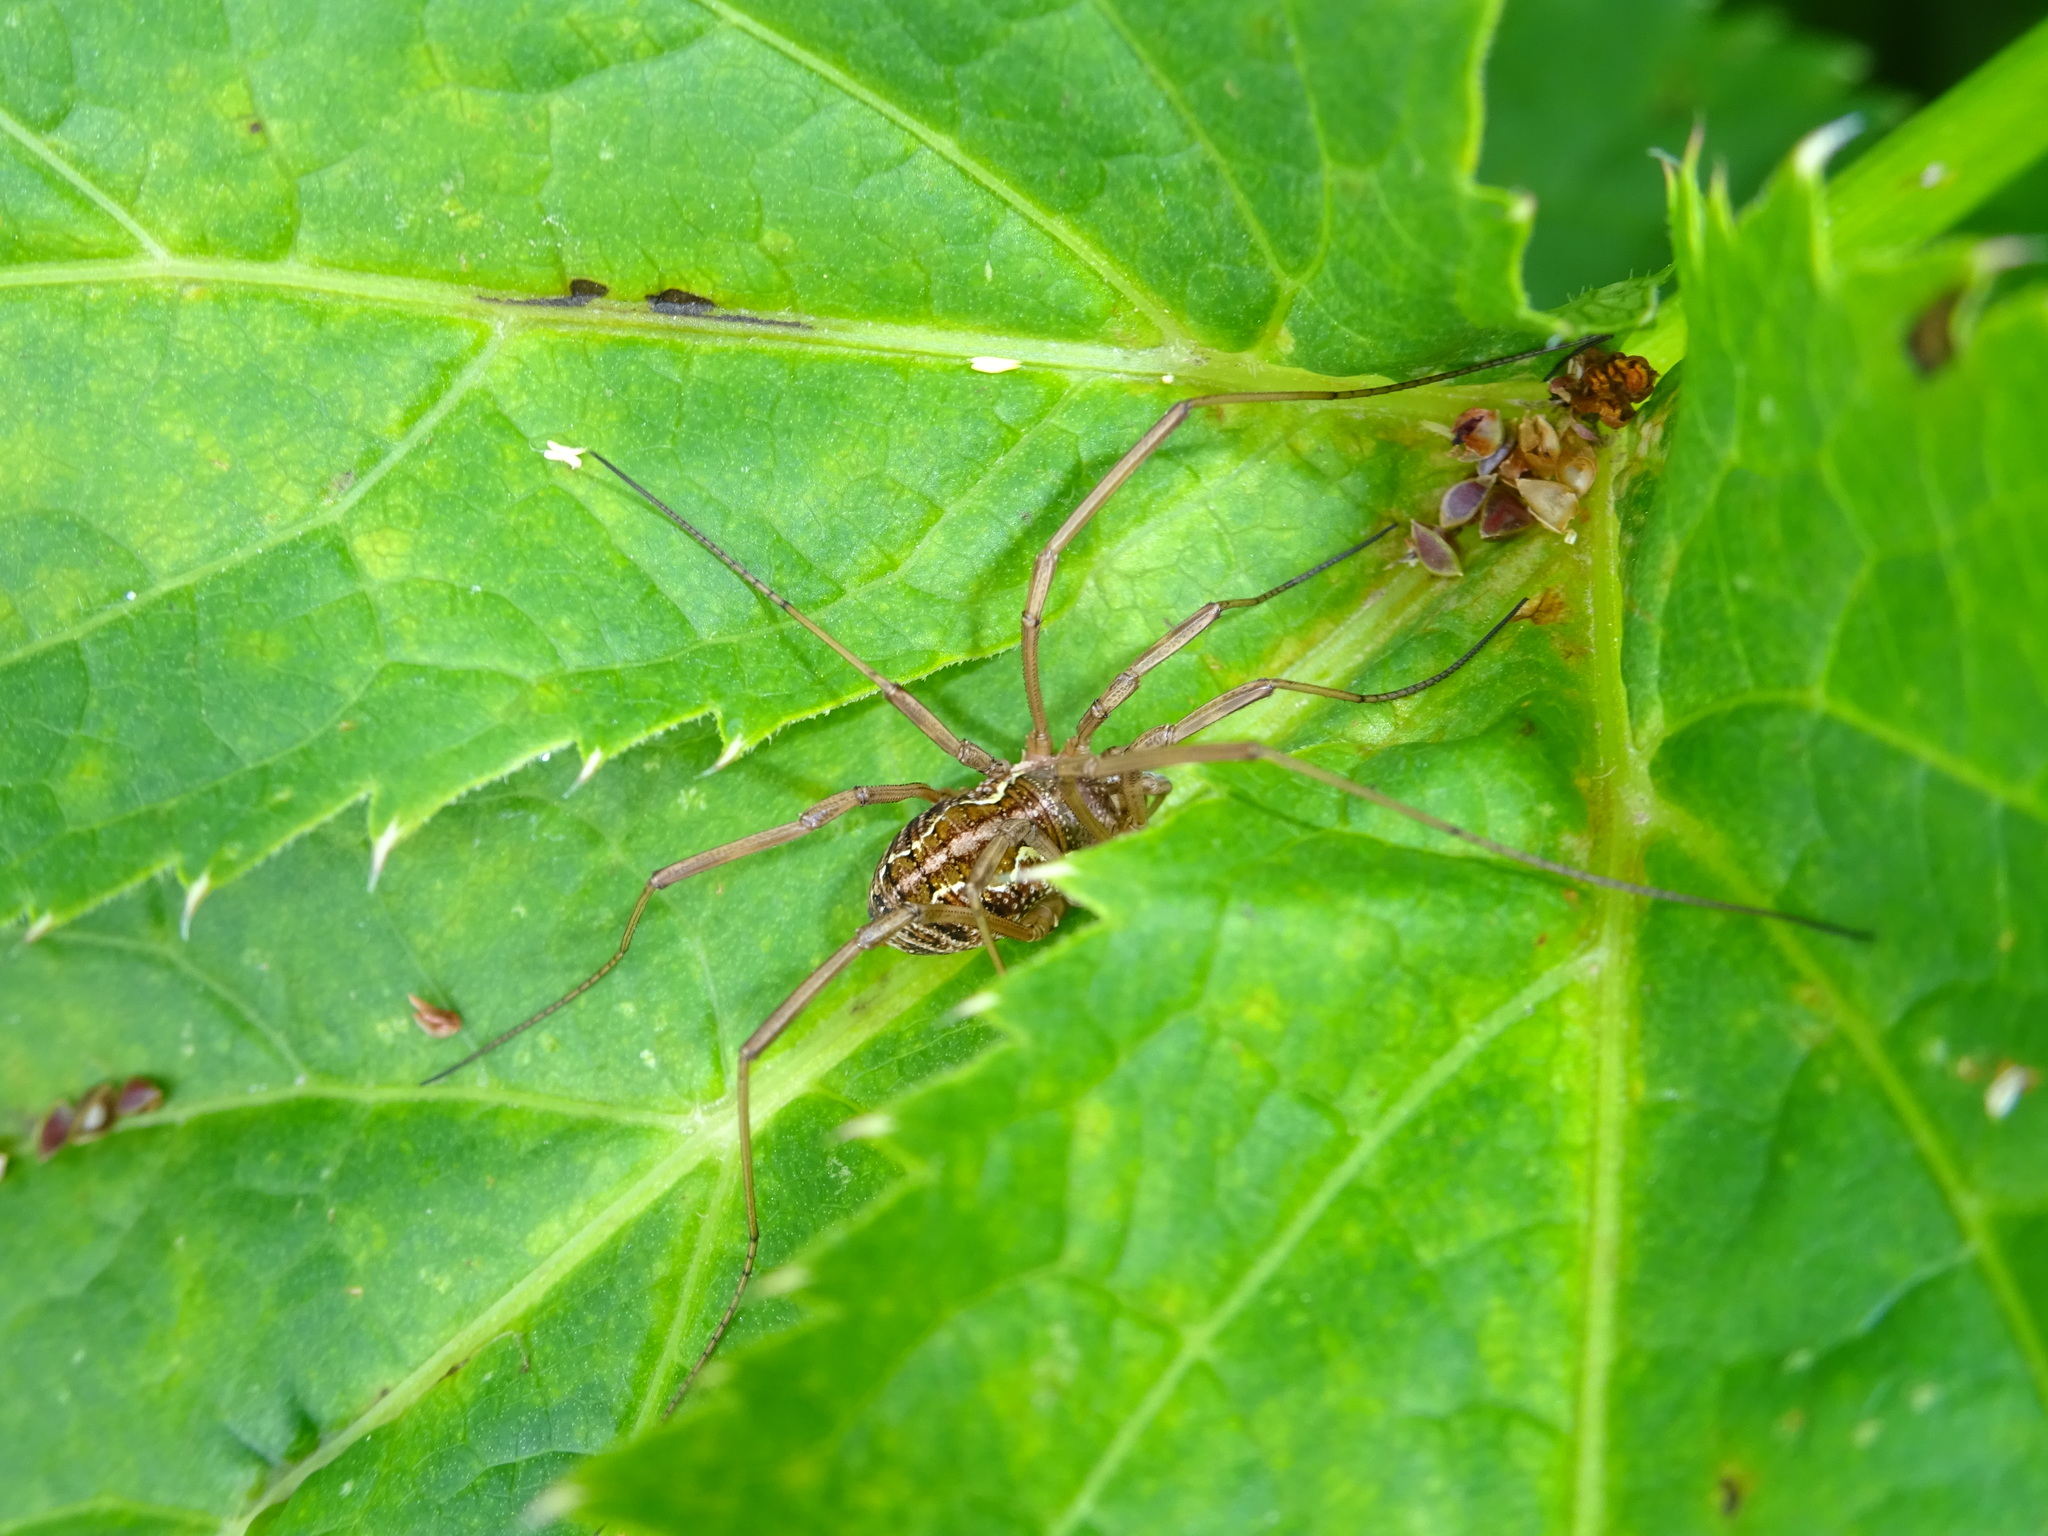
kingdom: Animalia
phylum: Arthropoda
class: Arachnida
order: Opiliones
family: Phalangiidae
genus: Mitopus
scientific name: Mitopus morio
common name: Saddleback harvestman
